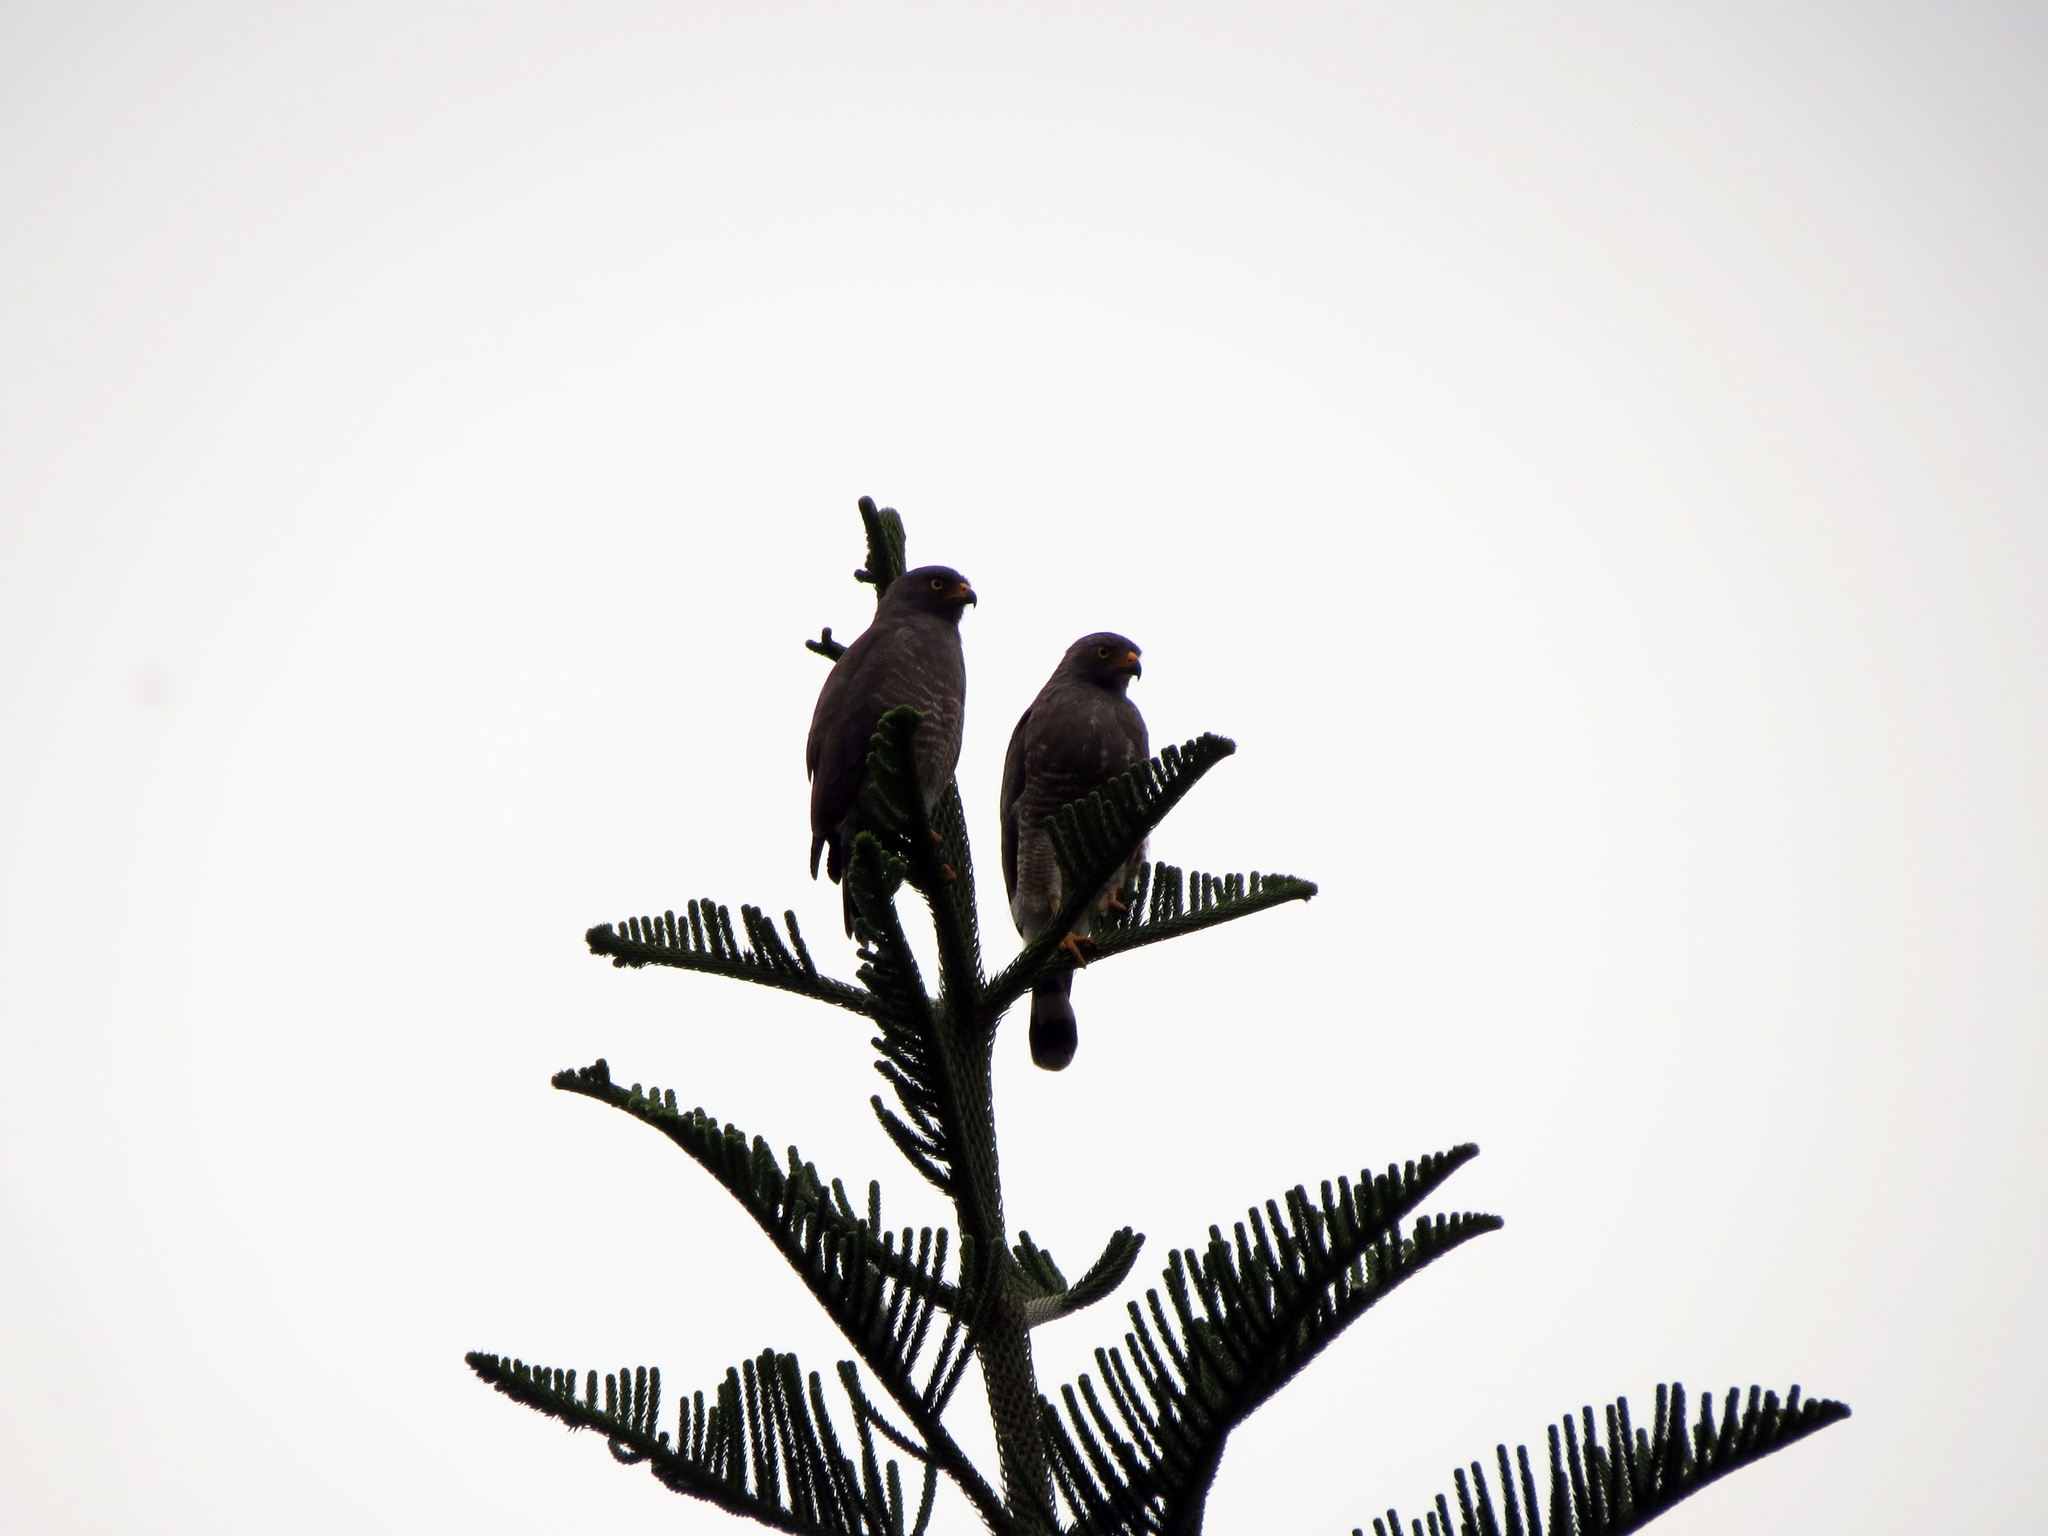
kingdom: Animalia
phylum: Chordata
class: Aves
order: Accipitriformes
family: Accipitridae
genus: Rupornis
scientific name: Rupornis magnirostris
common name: Roadside hawk
